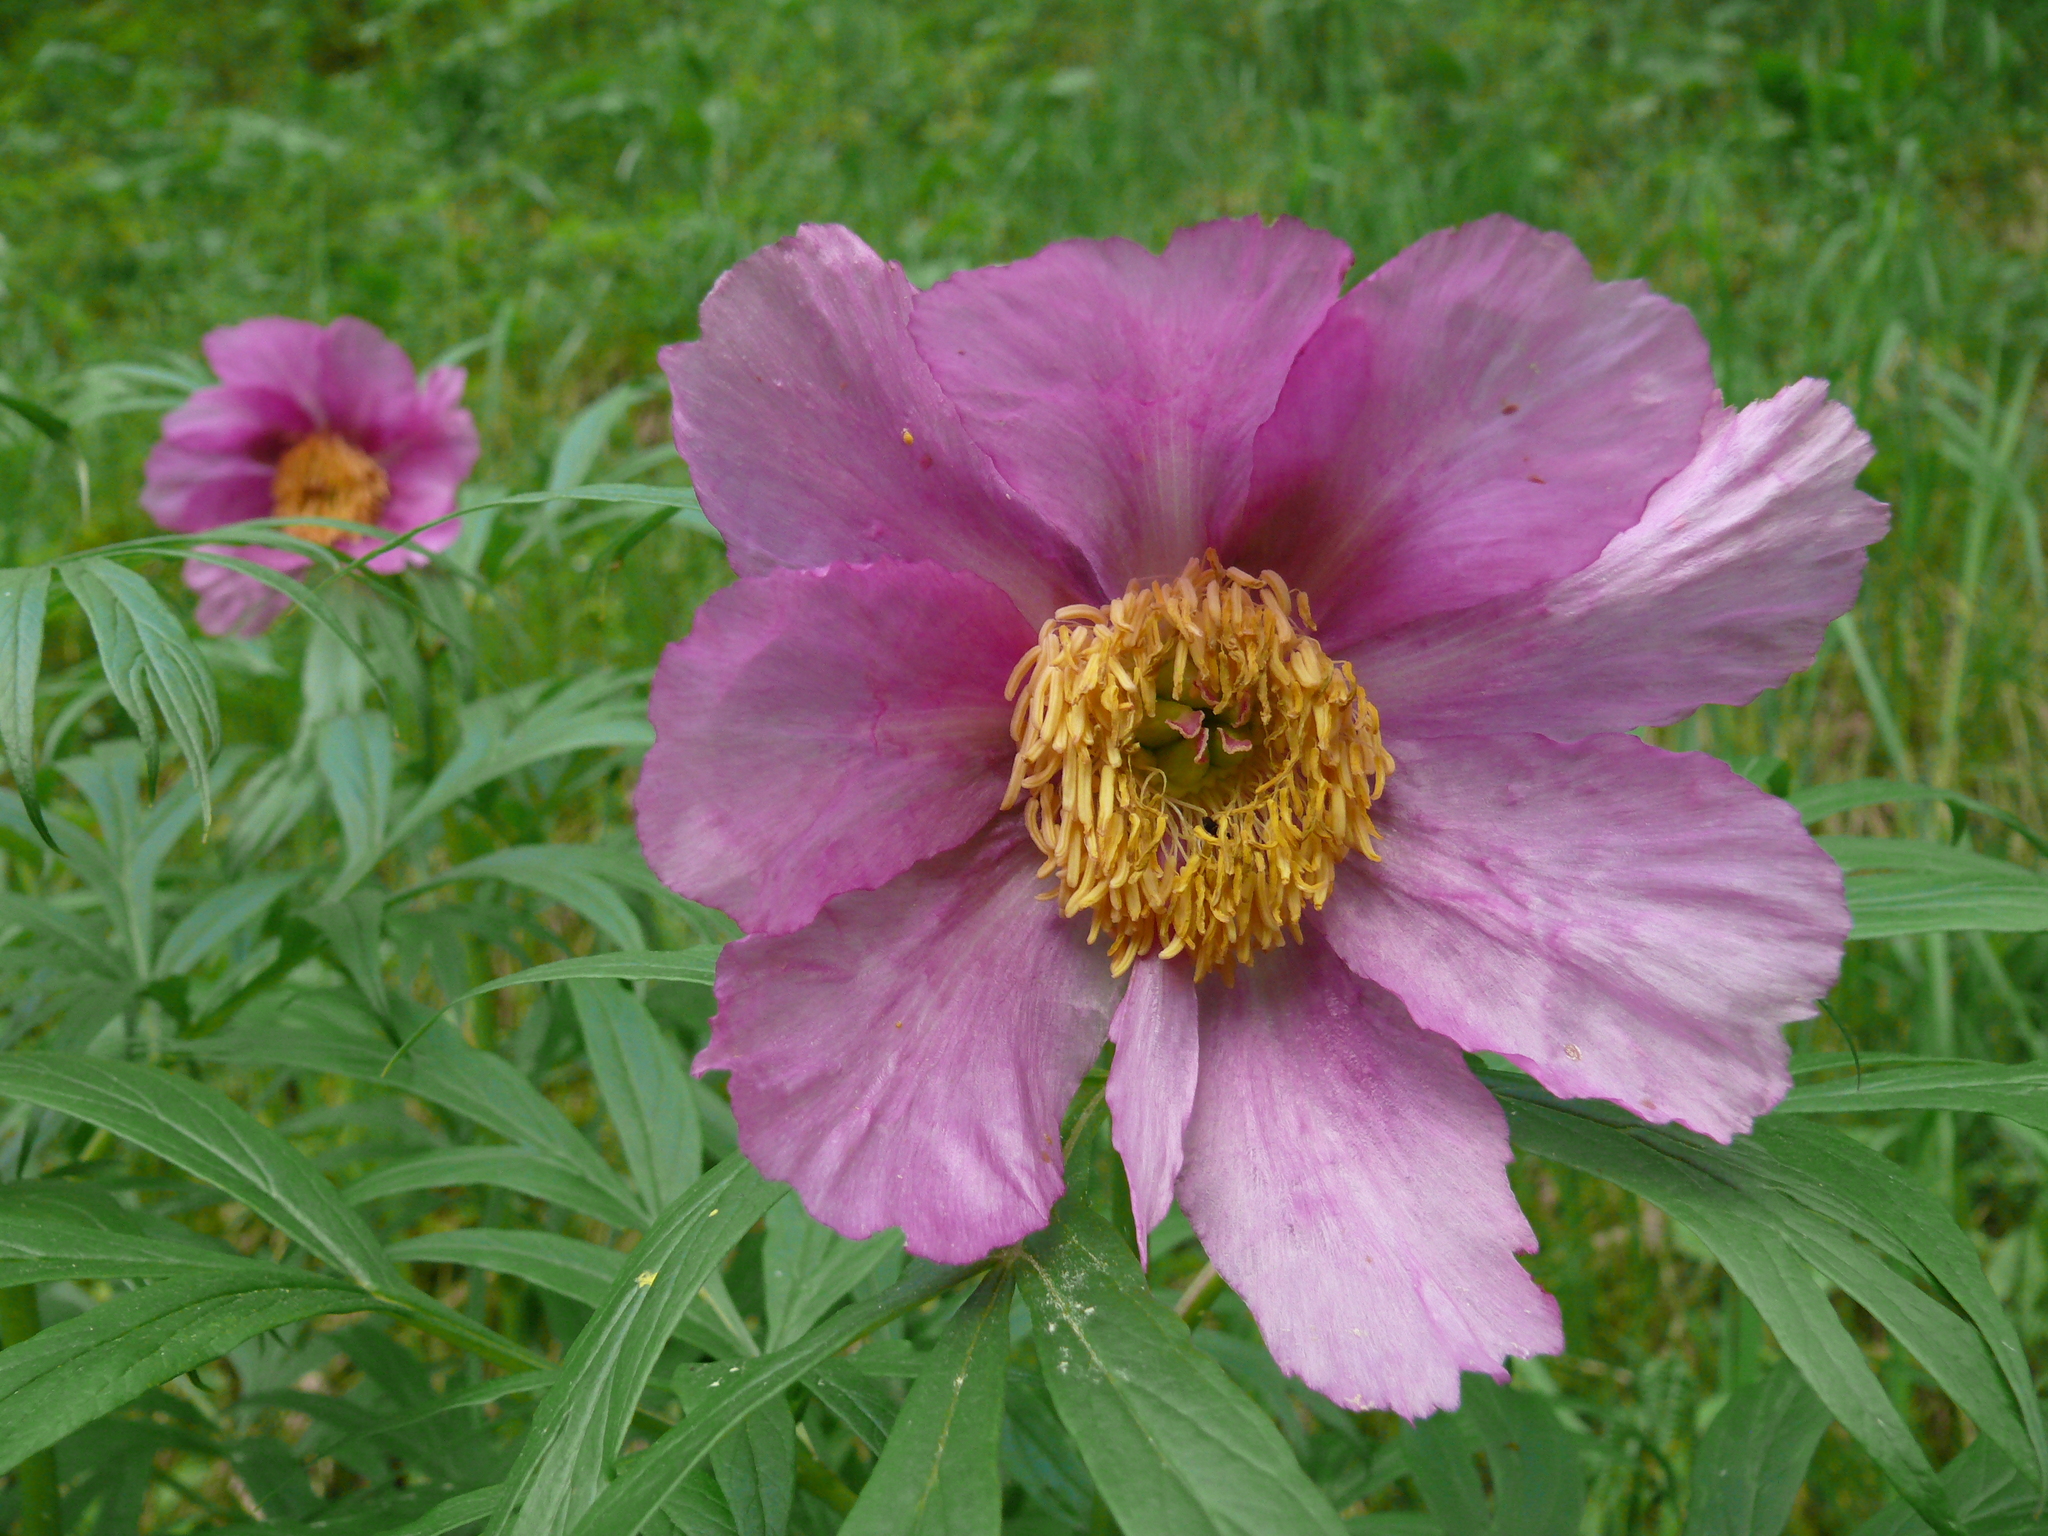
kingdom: Plantae
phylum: Tracheophyta
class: Magnoliopsida
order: Saxifragales
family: Paeoniaceae
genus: Paeonia
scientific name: Paeonia anomala
